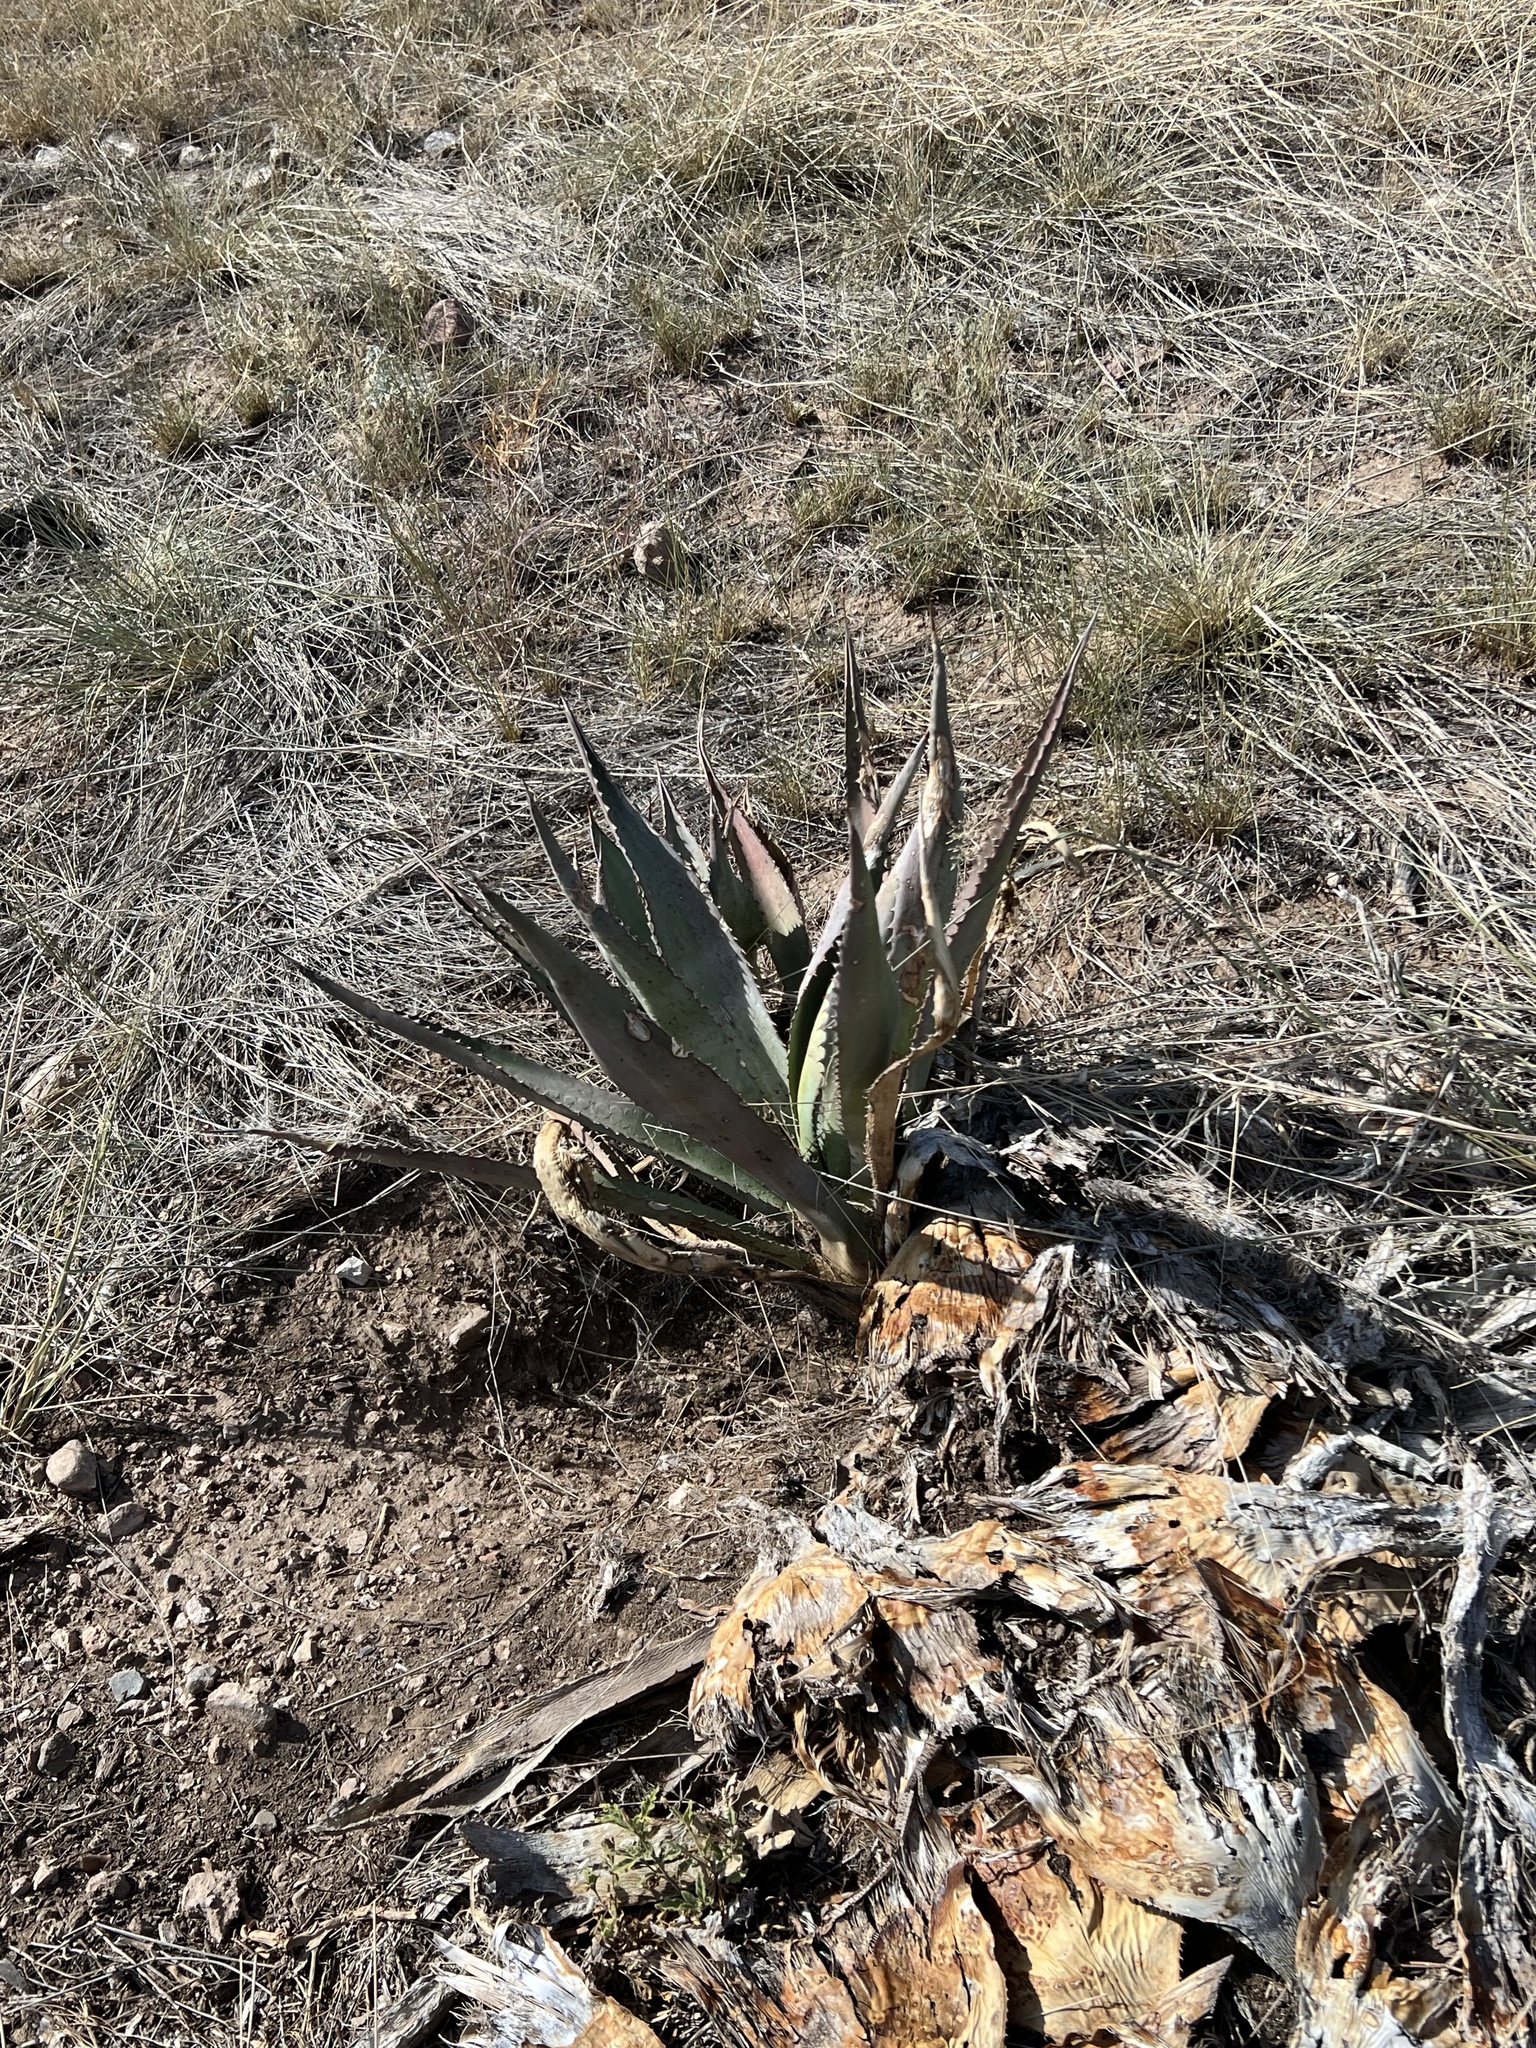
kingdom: Plantae
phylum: Tracheophyta
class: Liliopsida
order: Asparagales
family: Asparagaceae
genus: Agave
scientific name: Agave palmeri
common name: Palmer agave
